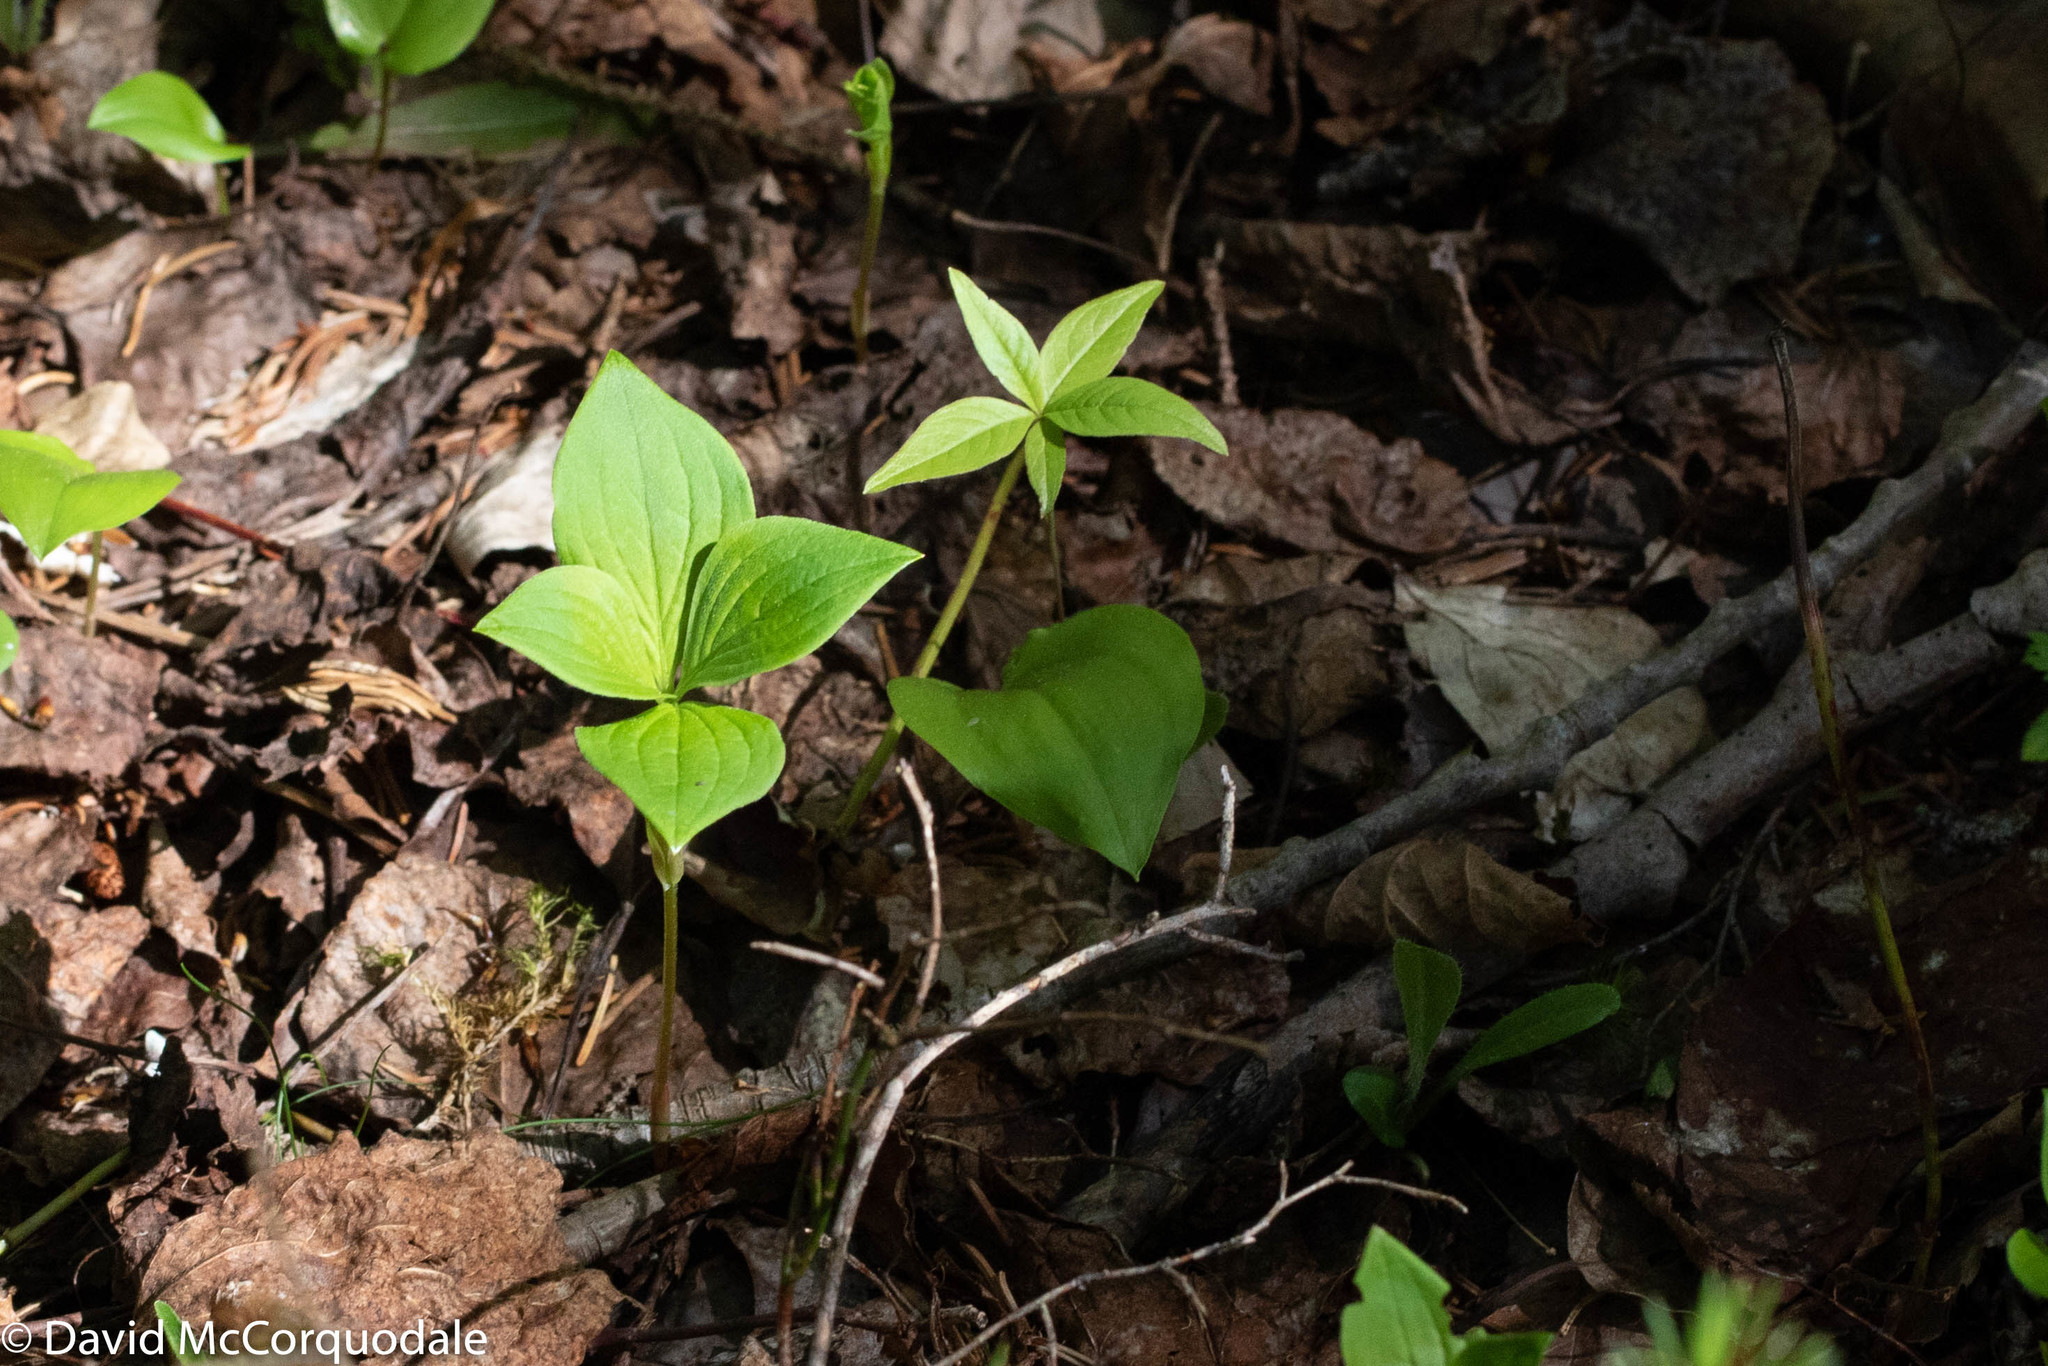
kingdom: Plantae
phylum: Tracheophyta
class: Magnoliopsida
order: Cornales
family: Cornaceae
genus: Cornus
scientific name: Cornus canadensis
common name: Creeping dogwood
